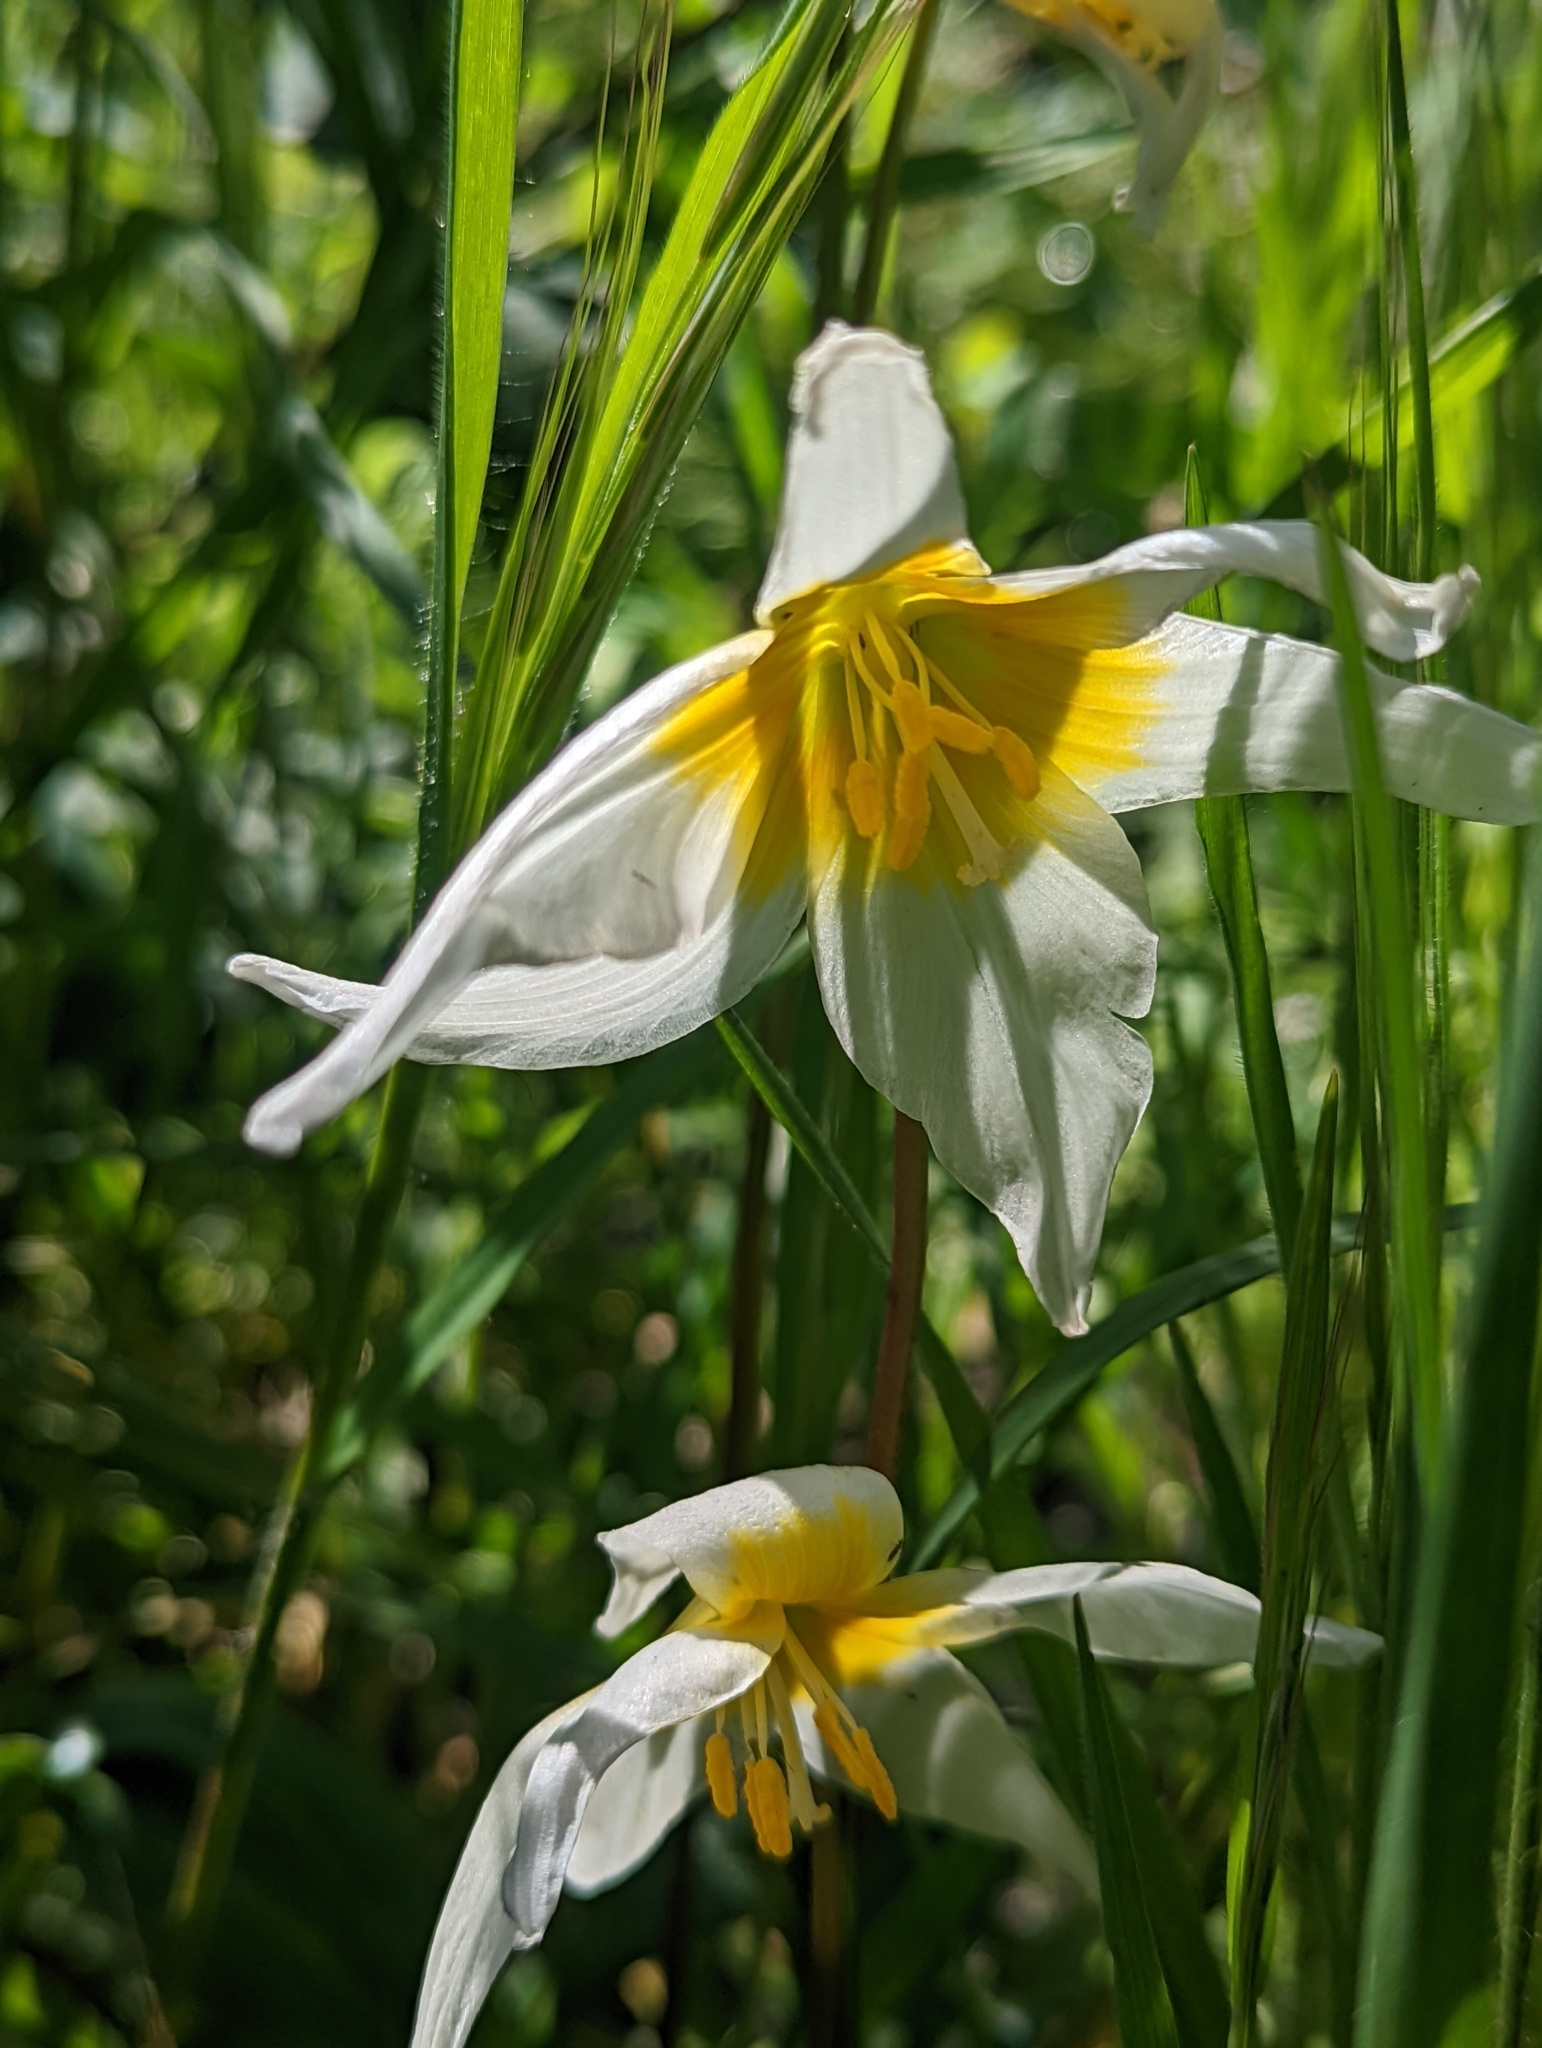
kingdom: Plantae
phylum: Tracheophyta
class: Liliopsida
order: Liliales
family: Liliaceae
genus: Erythronium
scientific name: Erythronium helenae
